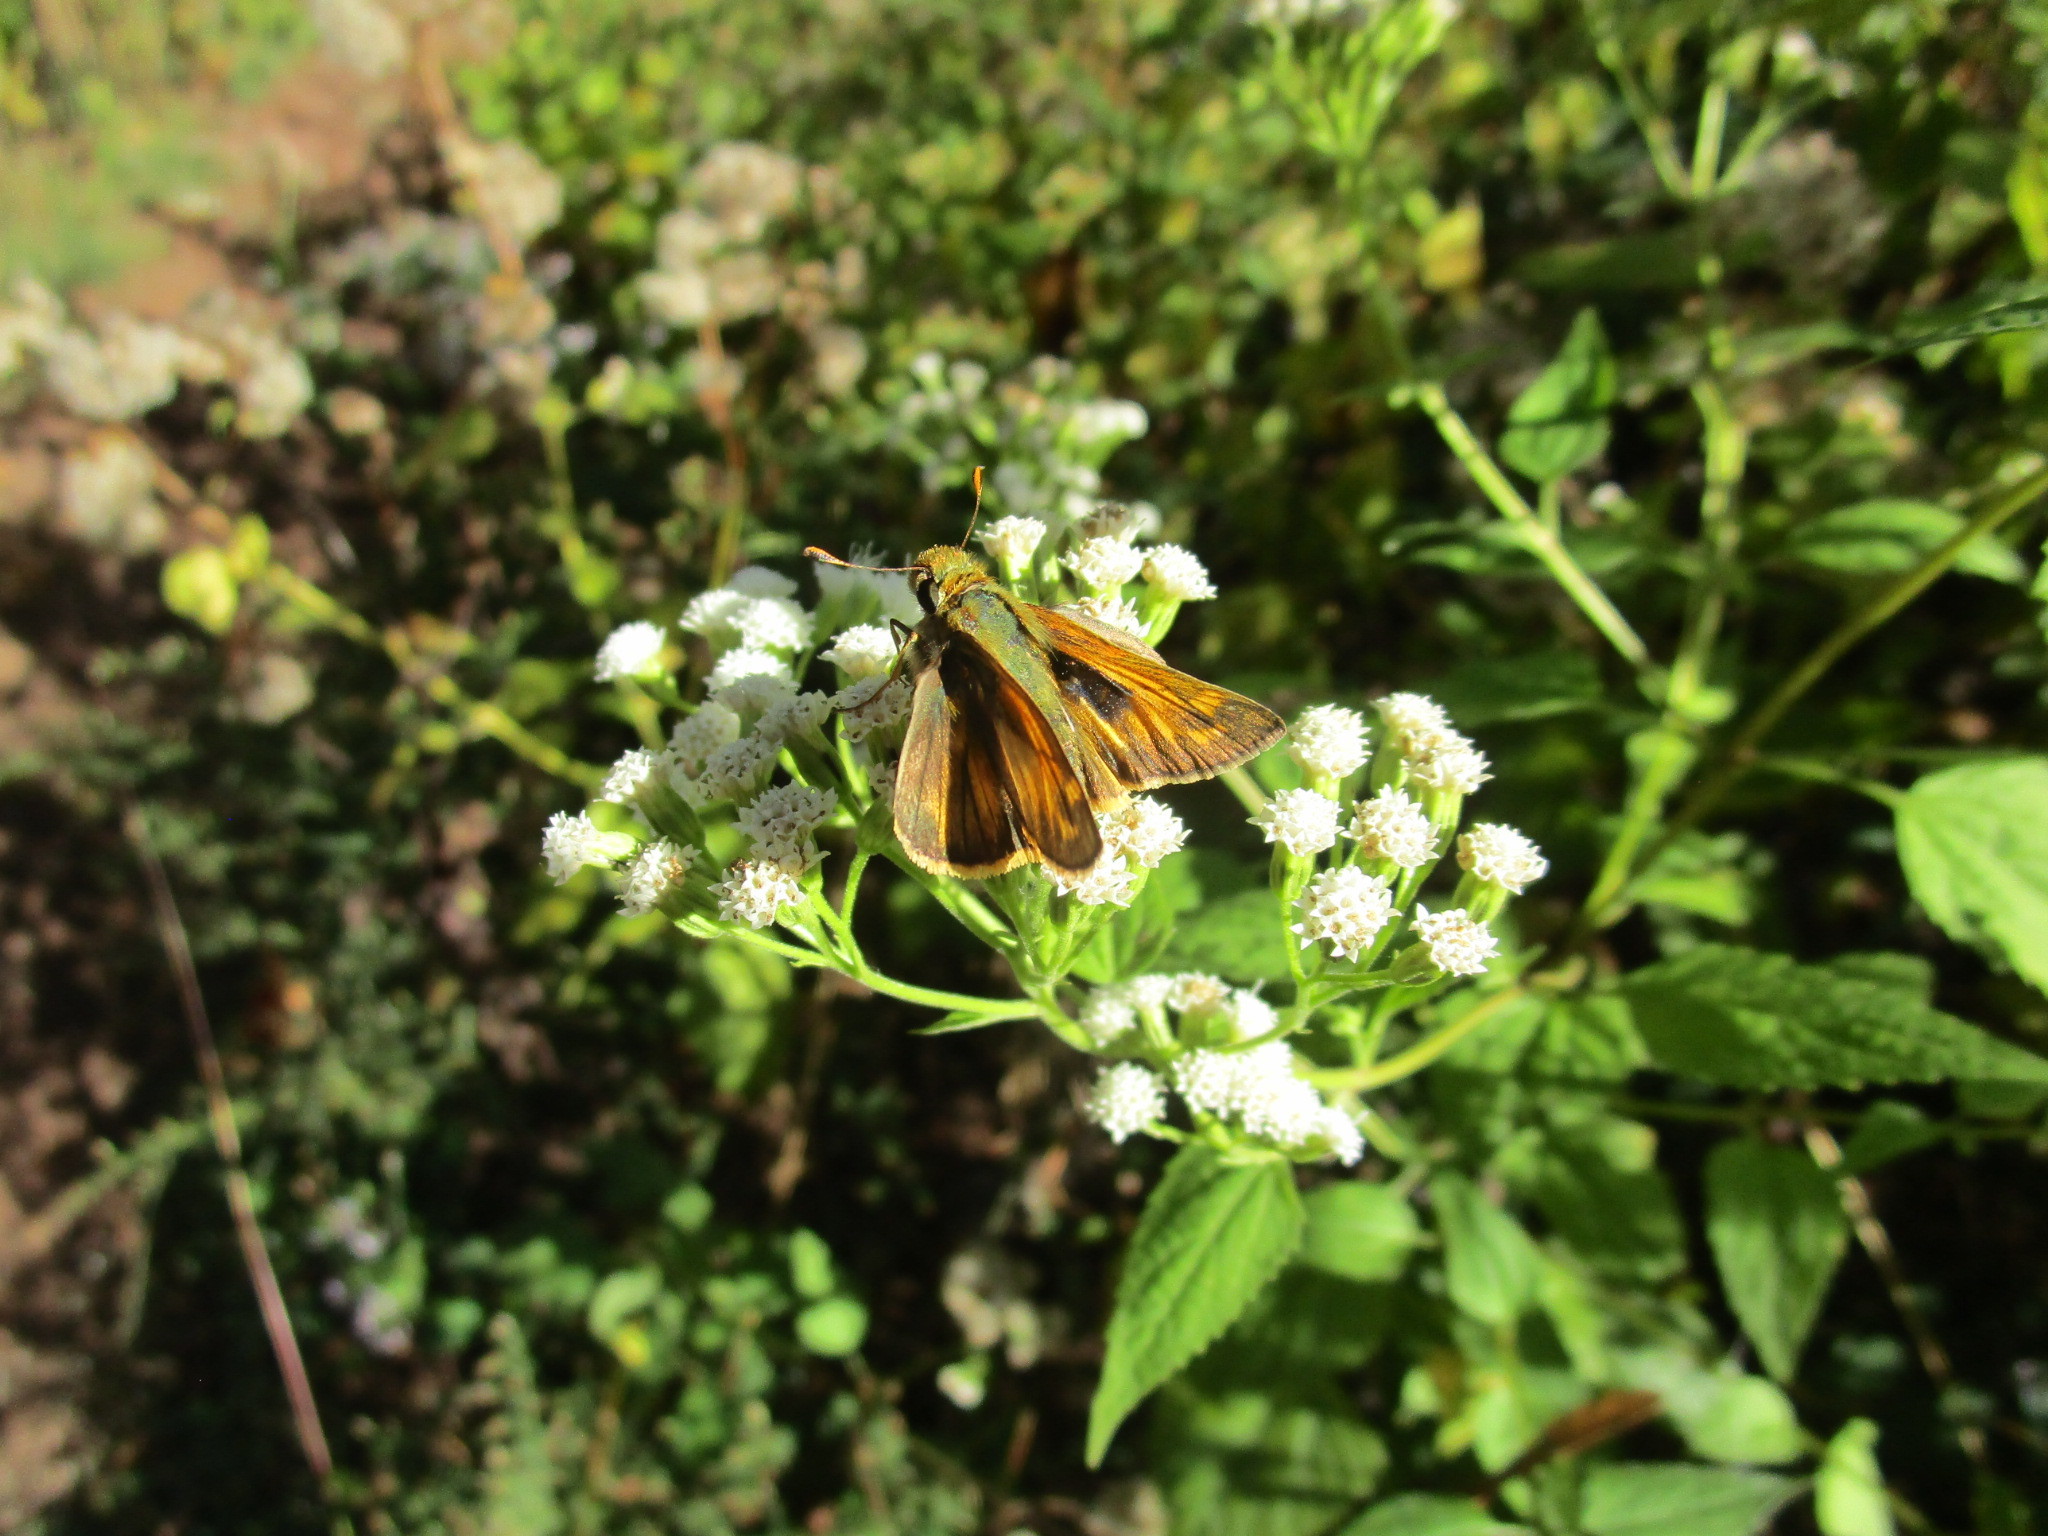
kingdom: Animalia
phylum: Arthropoda
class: Insecta
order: Lepidoptera
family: Hesperiidae
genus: Atalopedes
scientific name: Atalopedes
